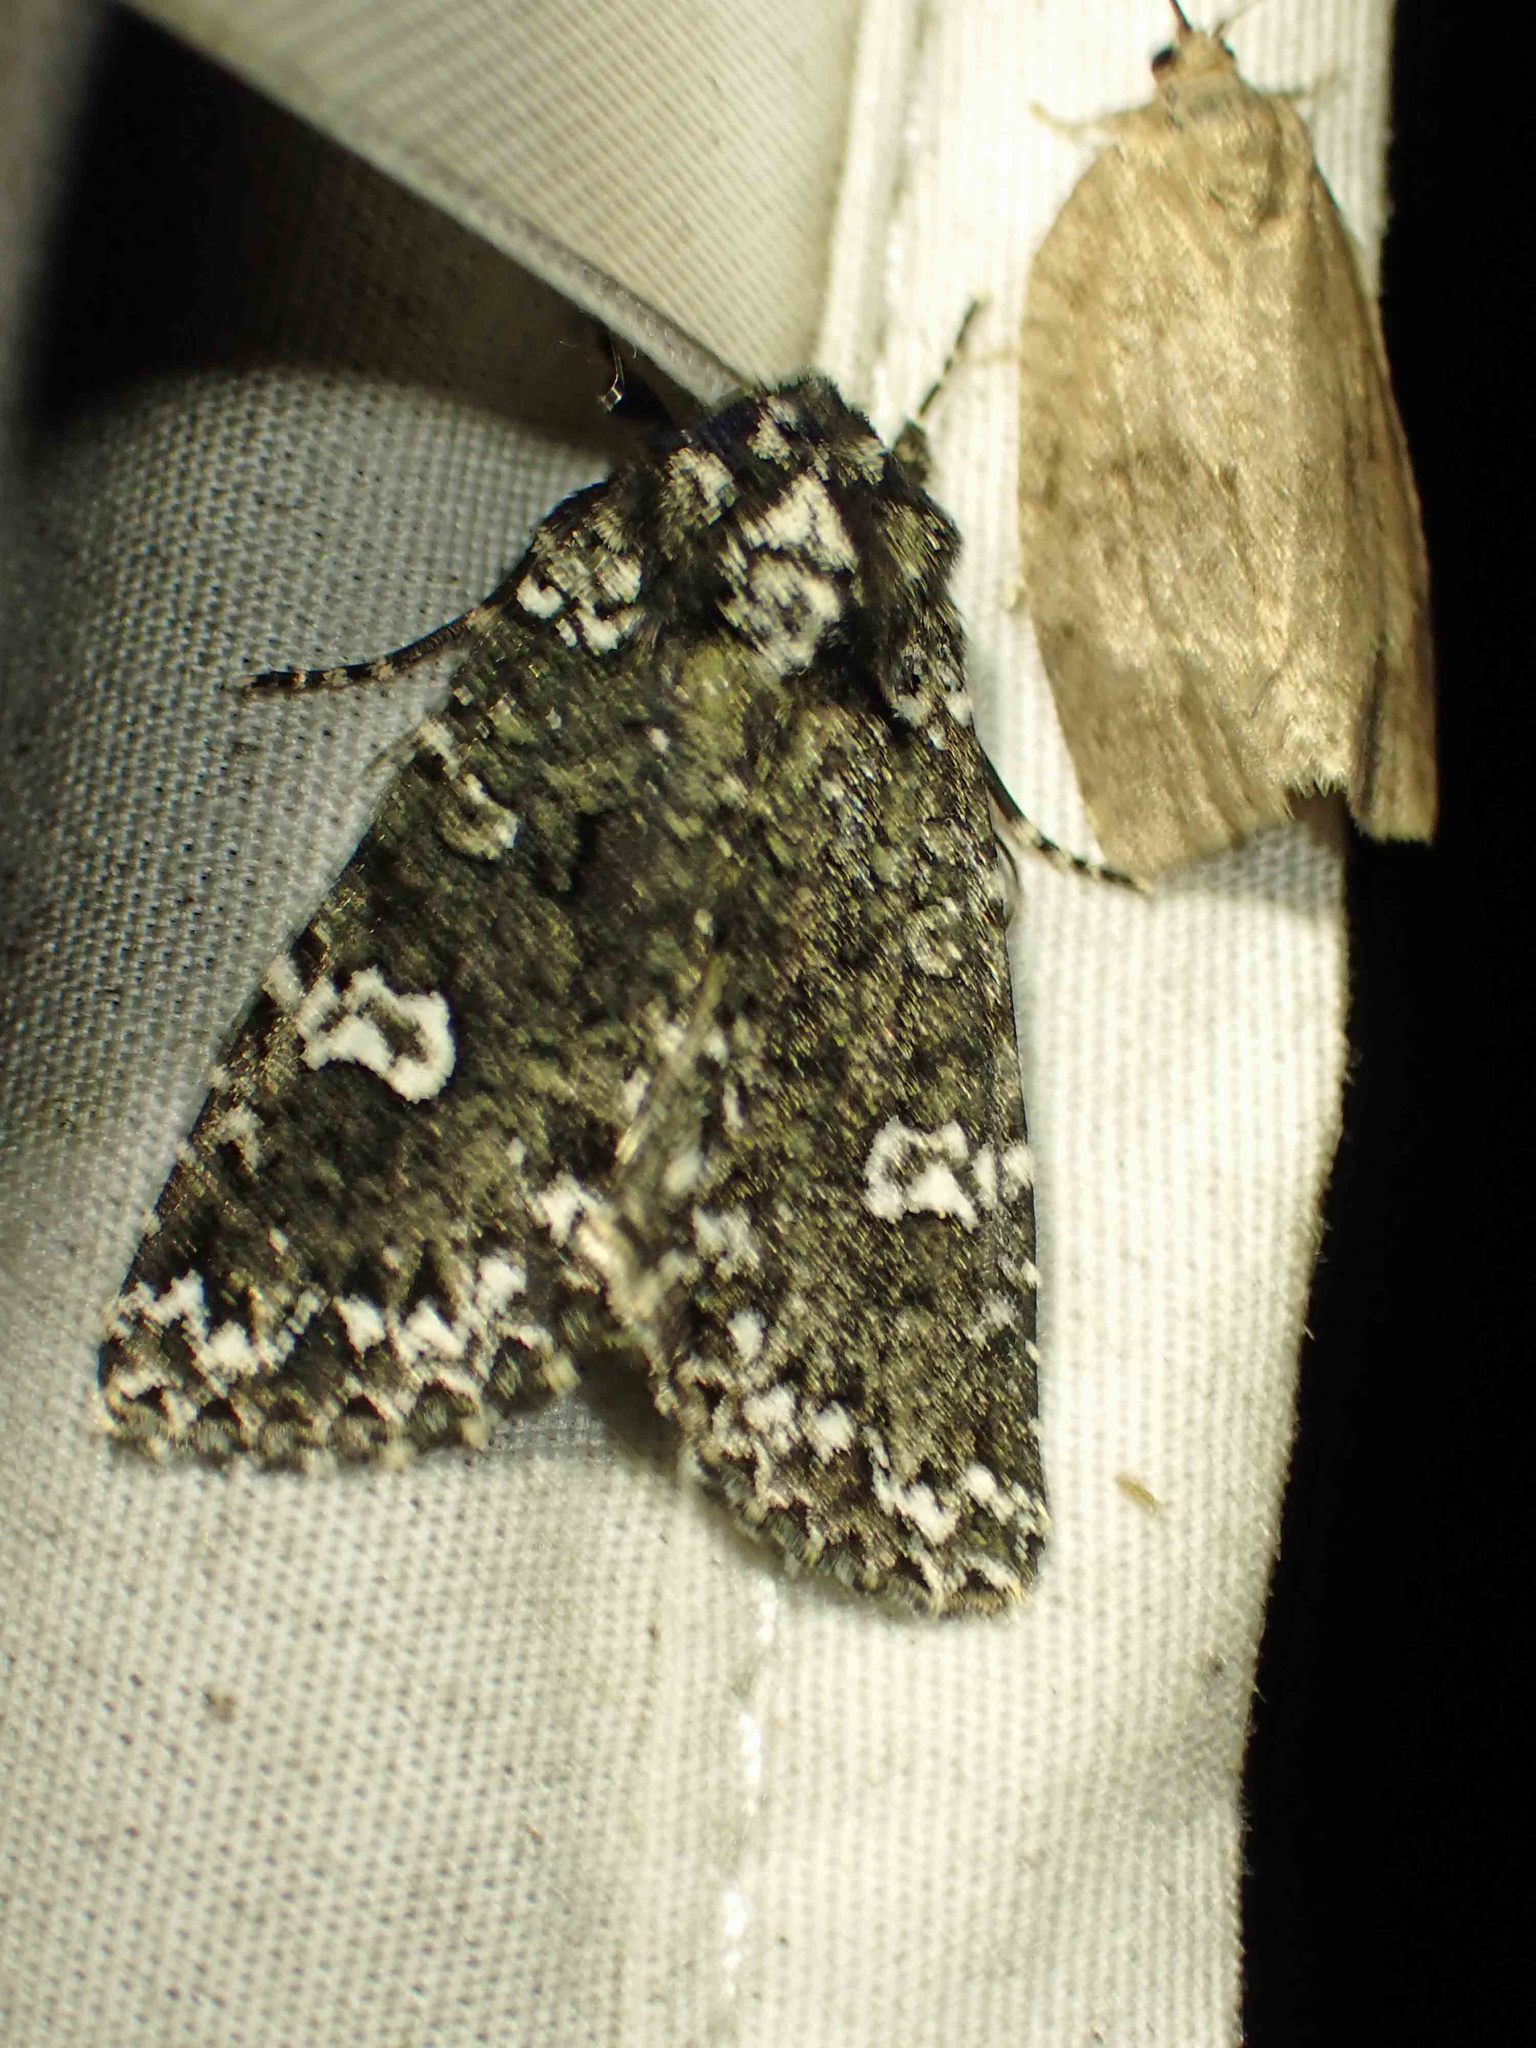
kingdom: Animalia
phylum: Arthropoda
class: Insecta
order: Lepidoptera
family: Noctuidae
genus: Melanchra
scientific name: Melanchra adjuncta
